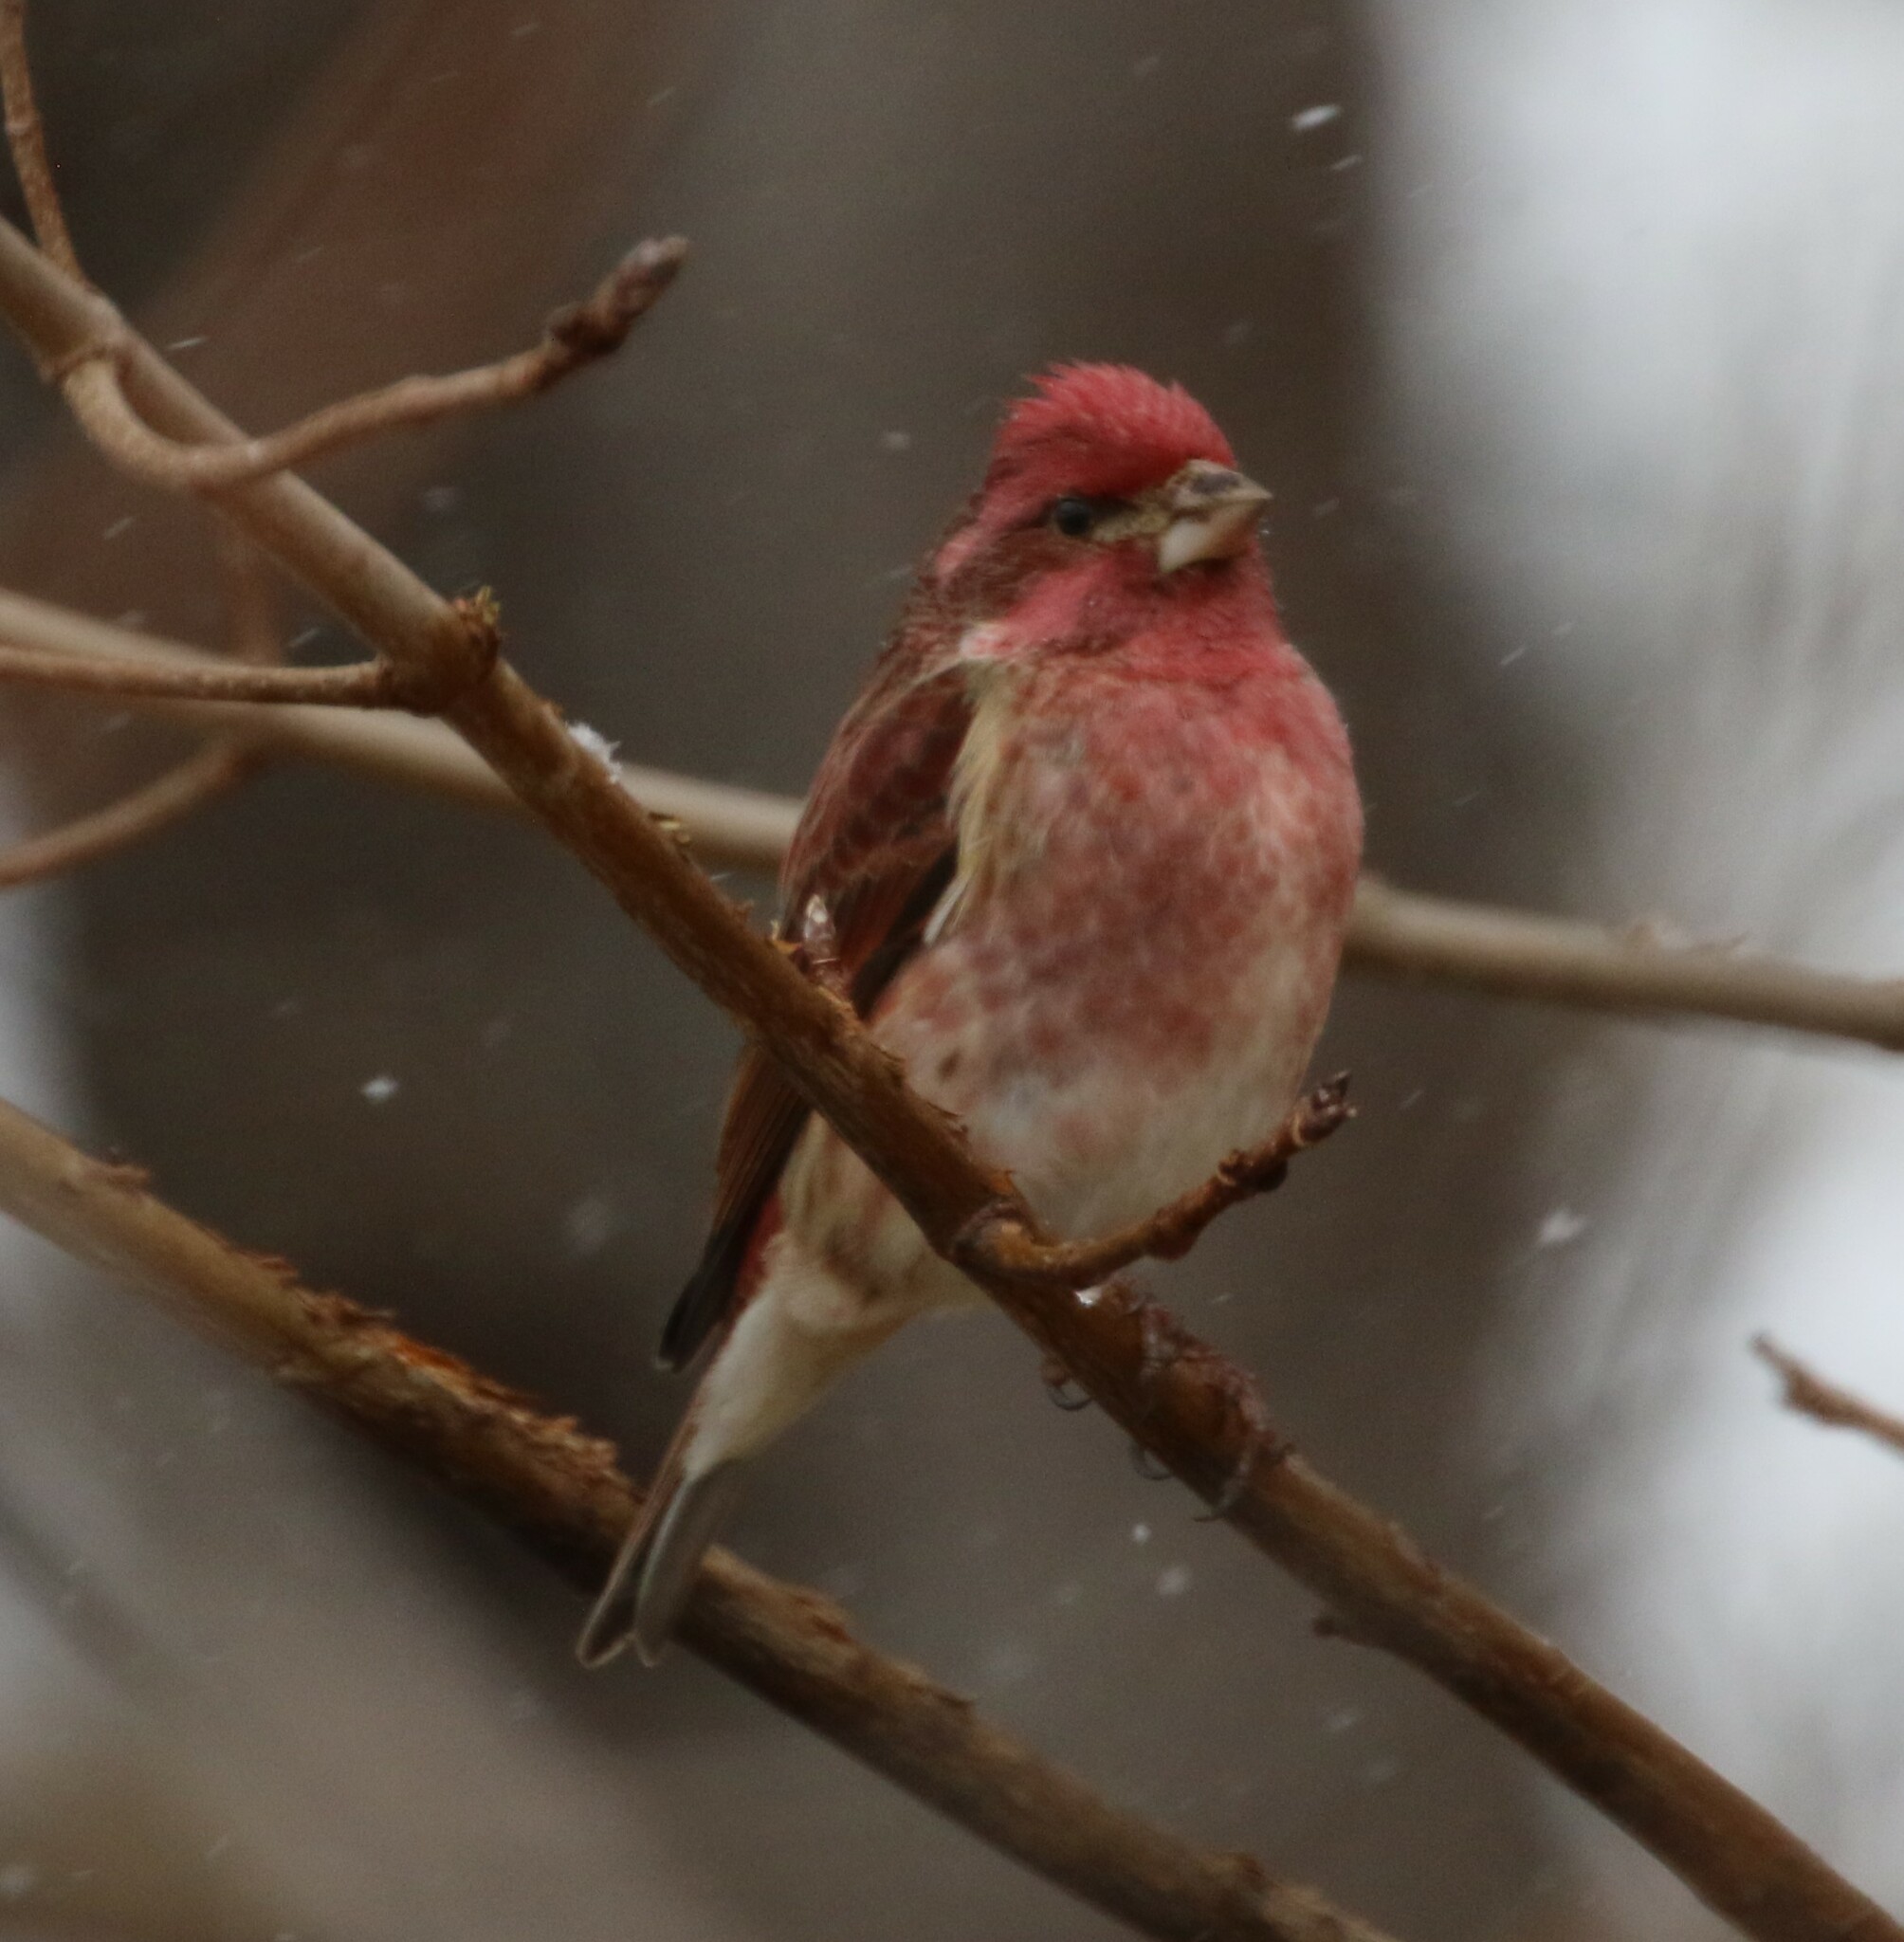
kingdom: Animalia
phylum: Chordata
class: Aves
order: Passeriformes
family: Fringillidae
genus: Haemorhous
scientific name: Haemorhous purpureus
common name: Purple finch
